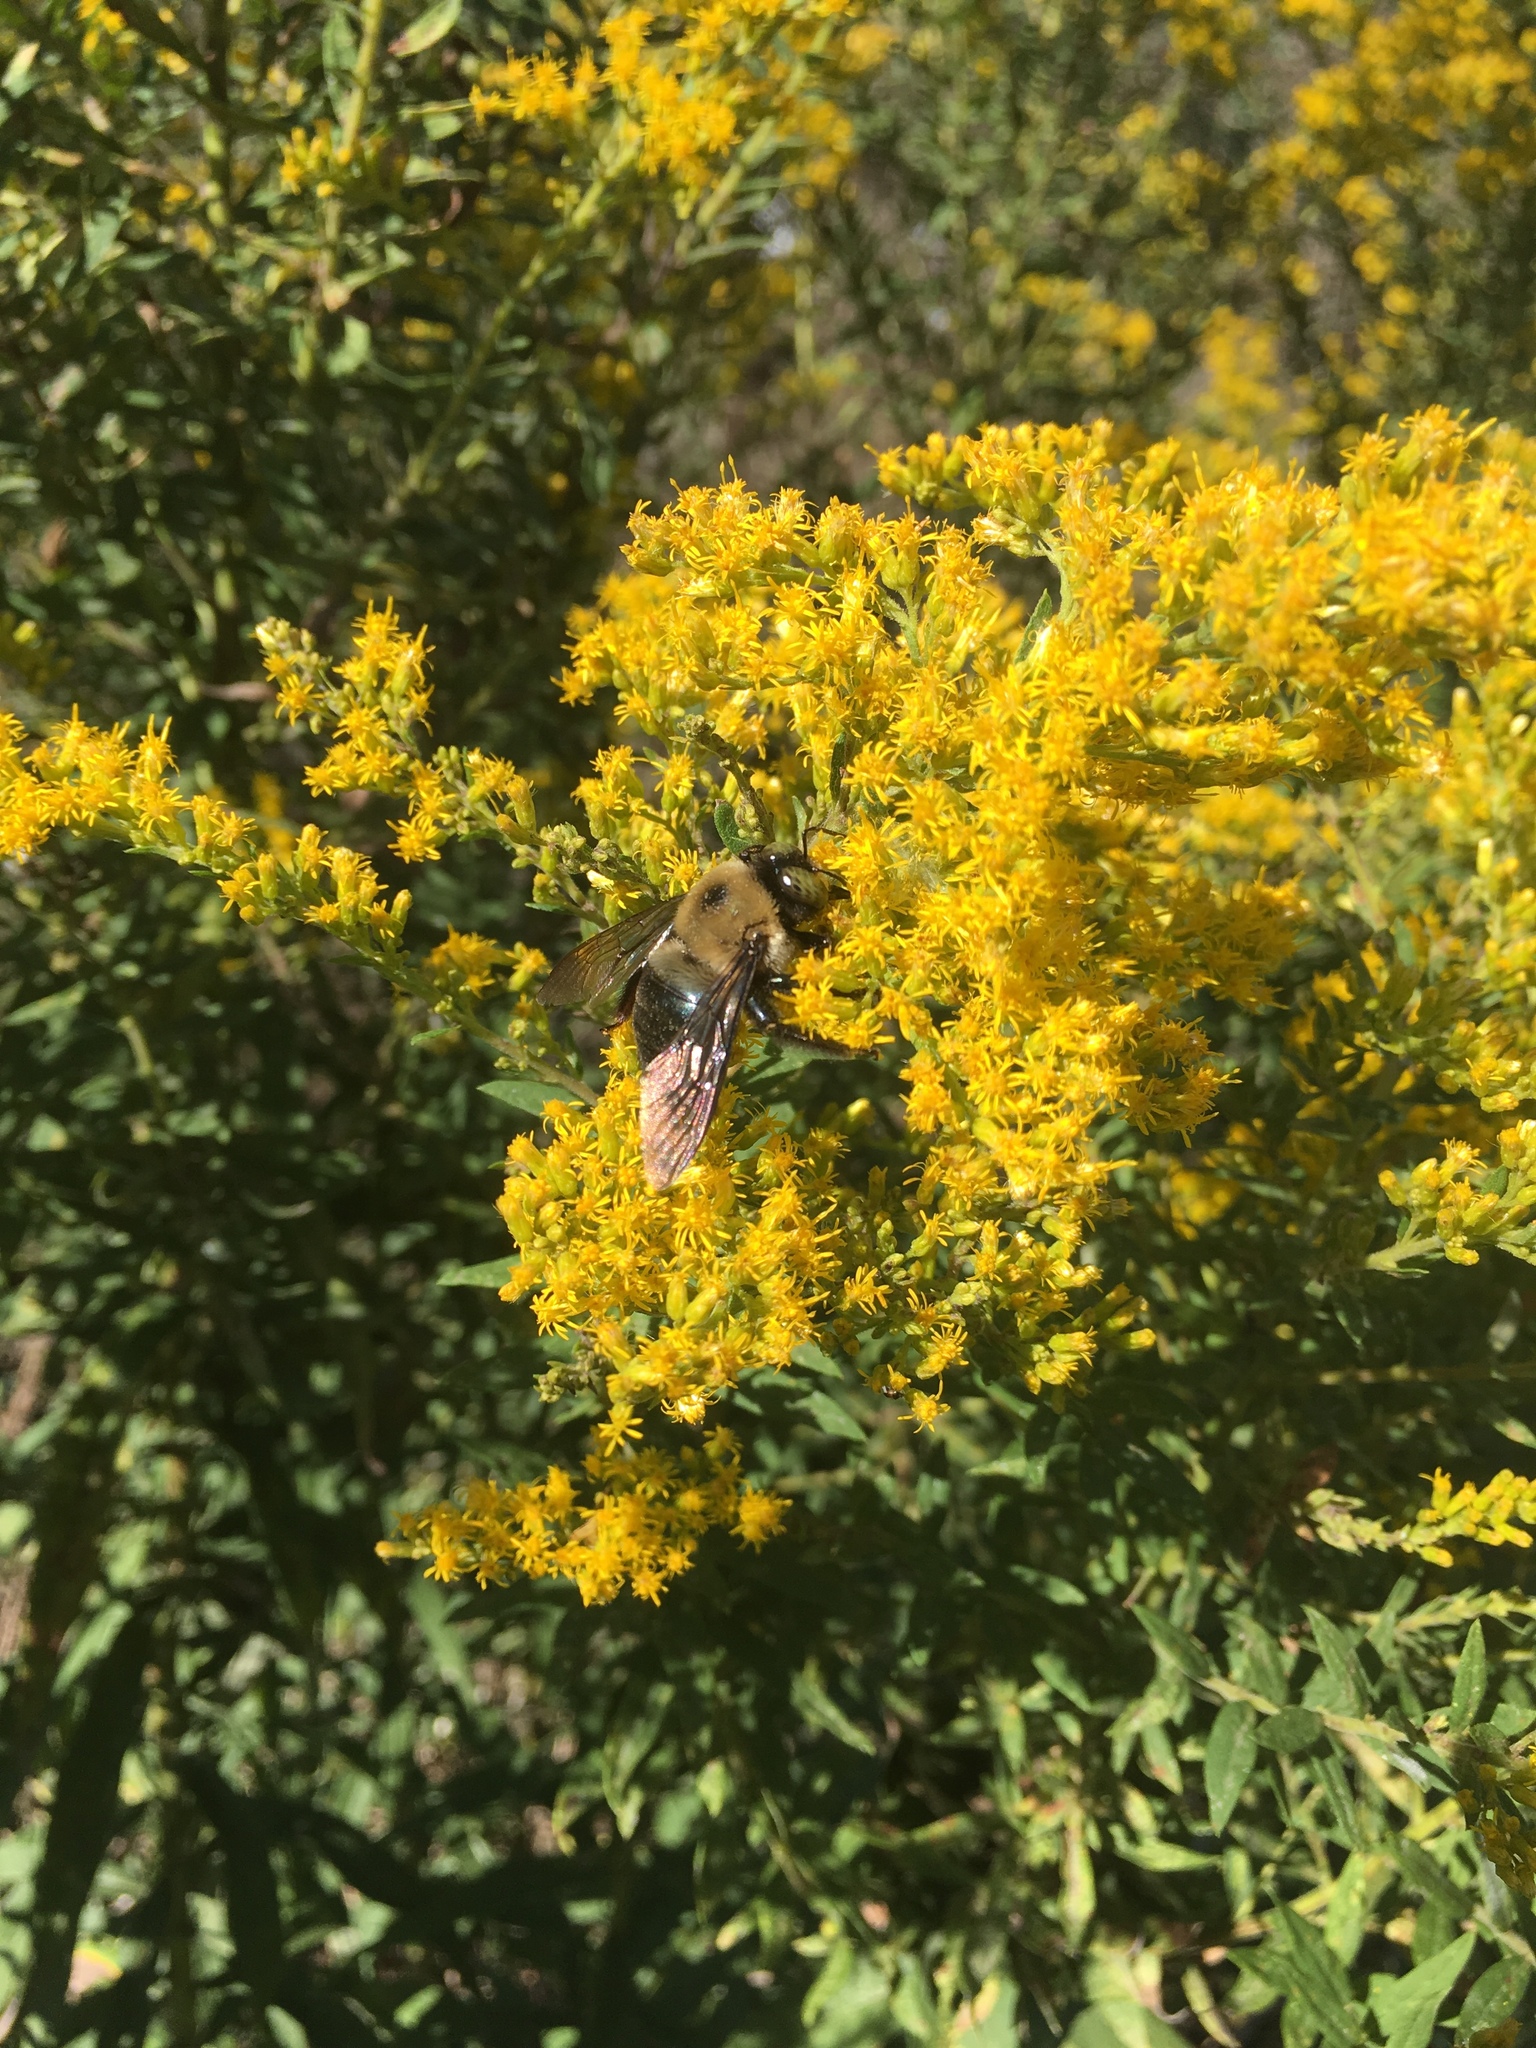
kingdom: Animalia
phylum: Arthropoda
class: Insecta
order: Hymenoptera
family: Apidae
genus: Xylocopa
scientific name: Xylocopa virginica
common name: Carpenter bee
